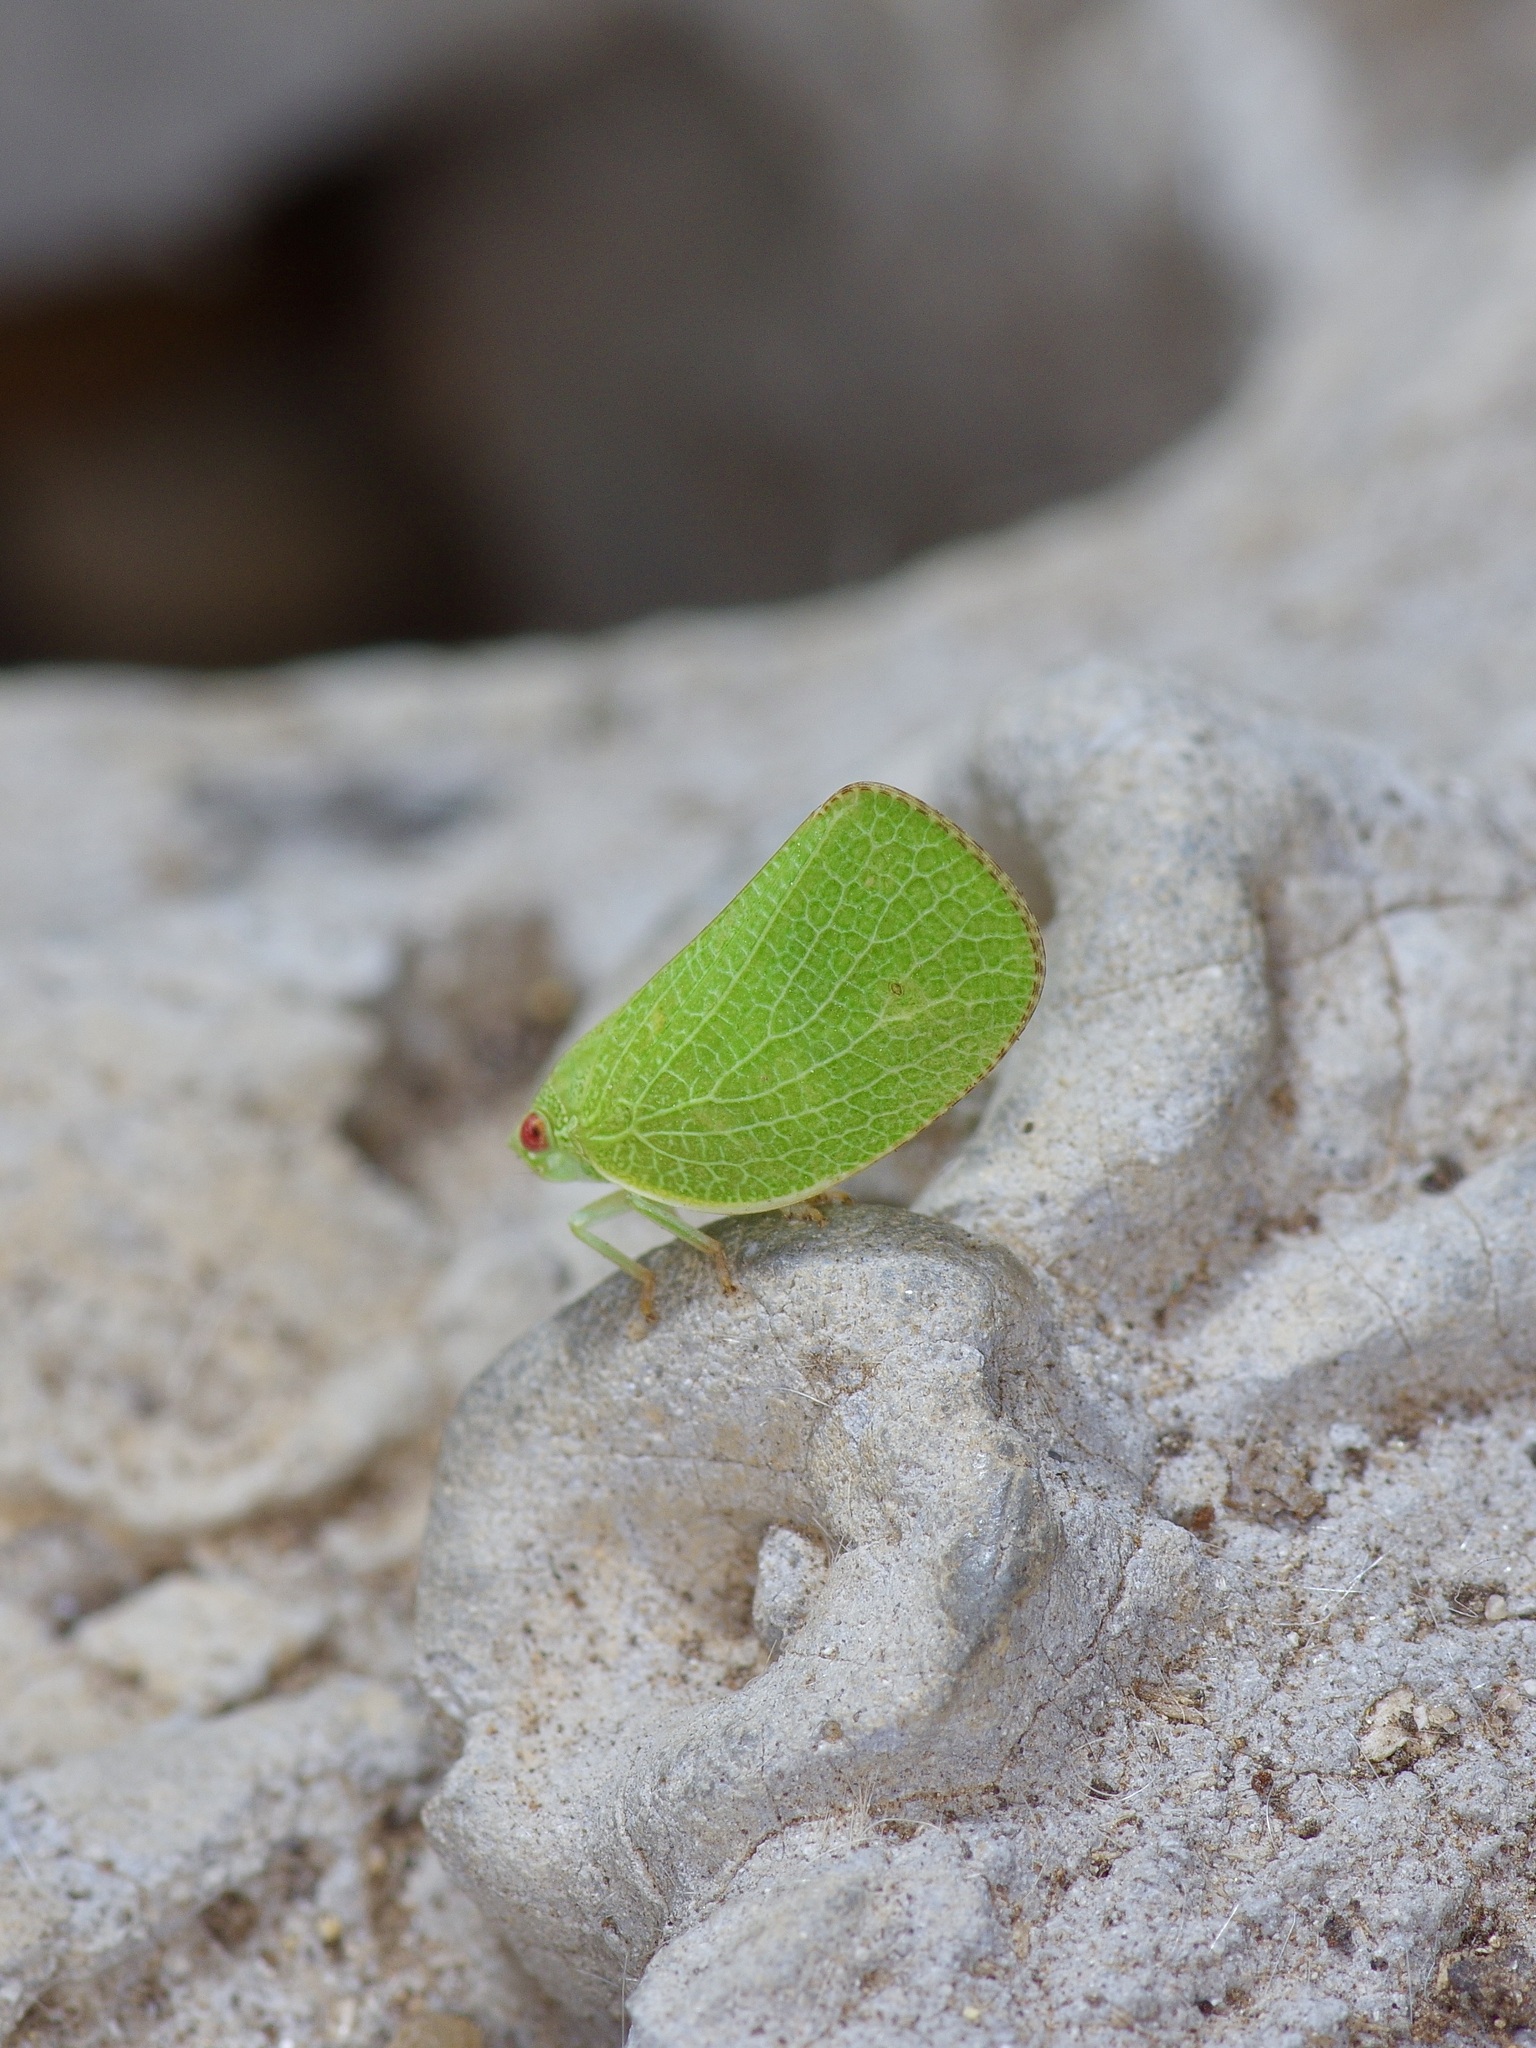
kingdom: Animalia
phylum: Arthropoda
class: Insecta
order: Hemiptera
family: Acanaloniidae
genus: Acanalonia
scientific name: Acanalonia conica
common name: Green cone-headed planthopper
